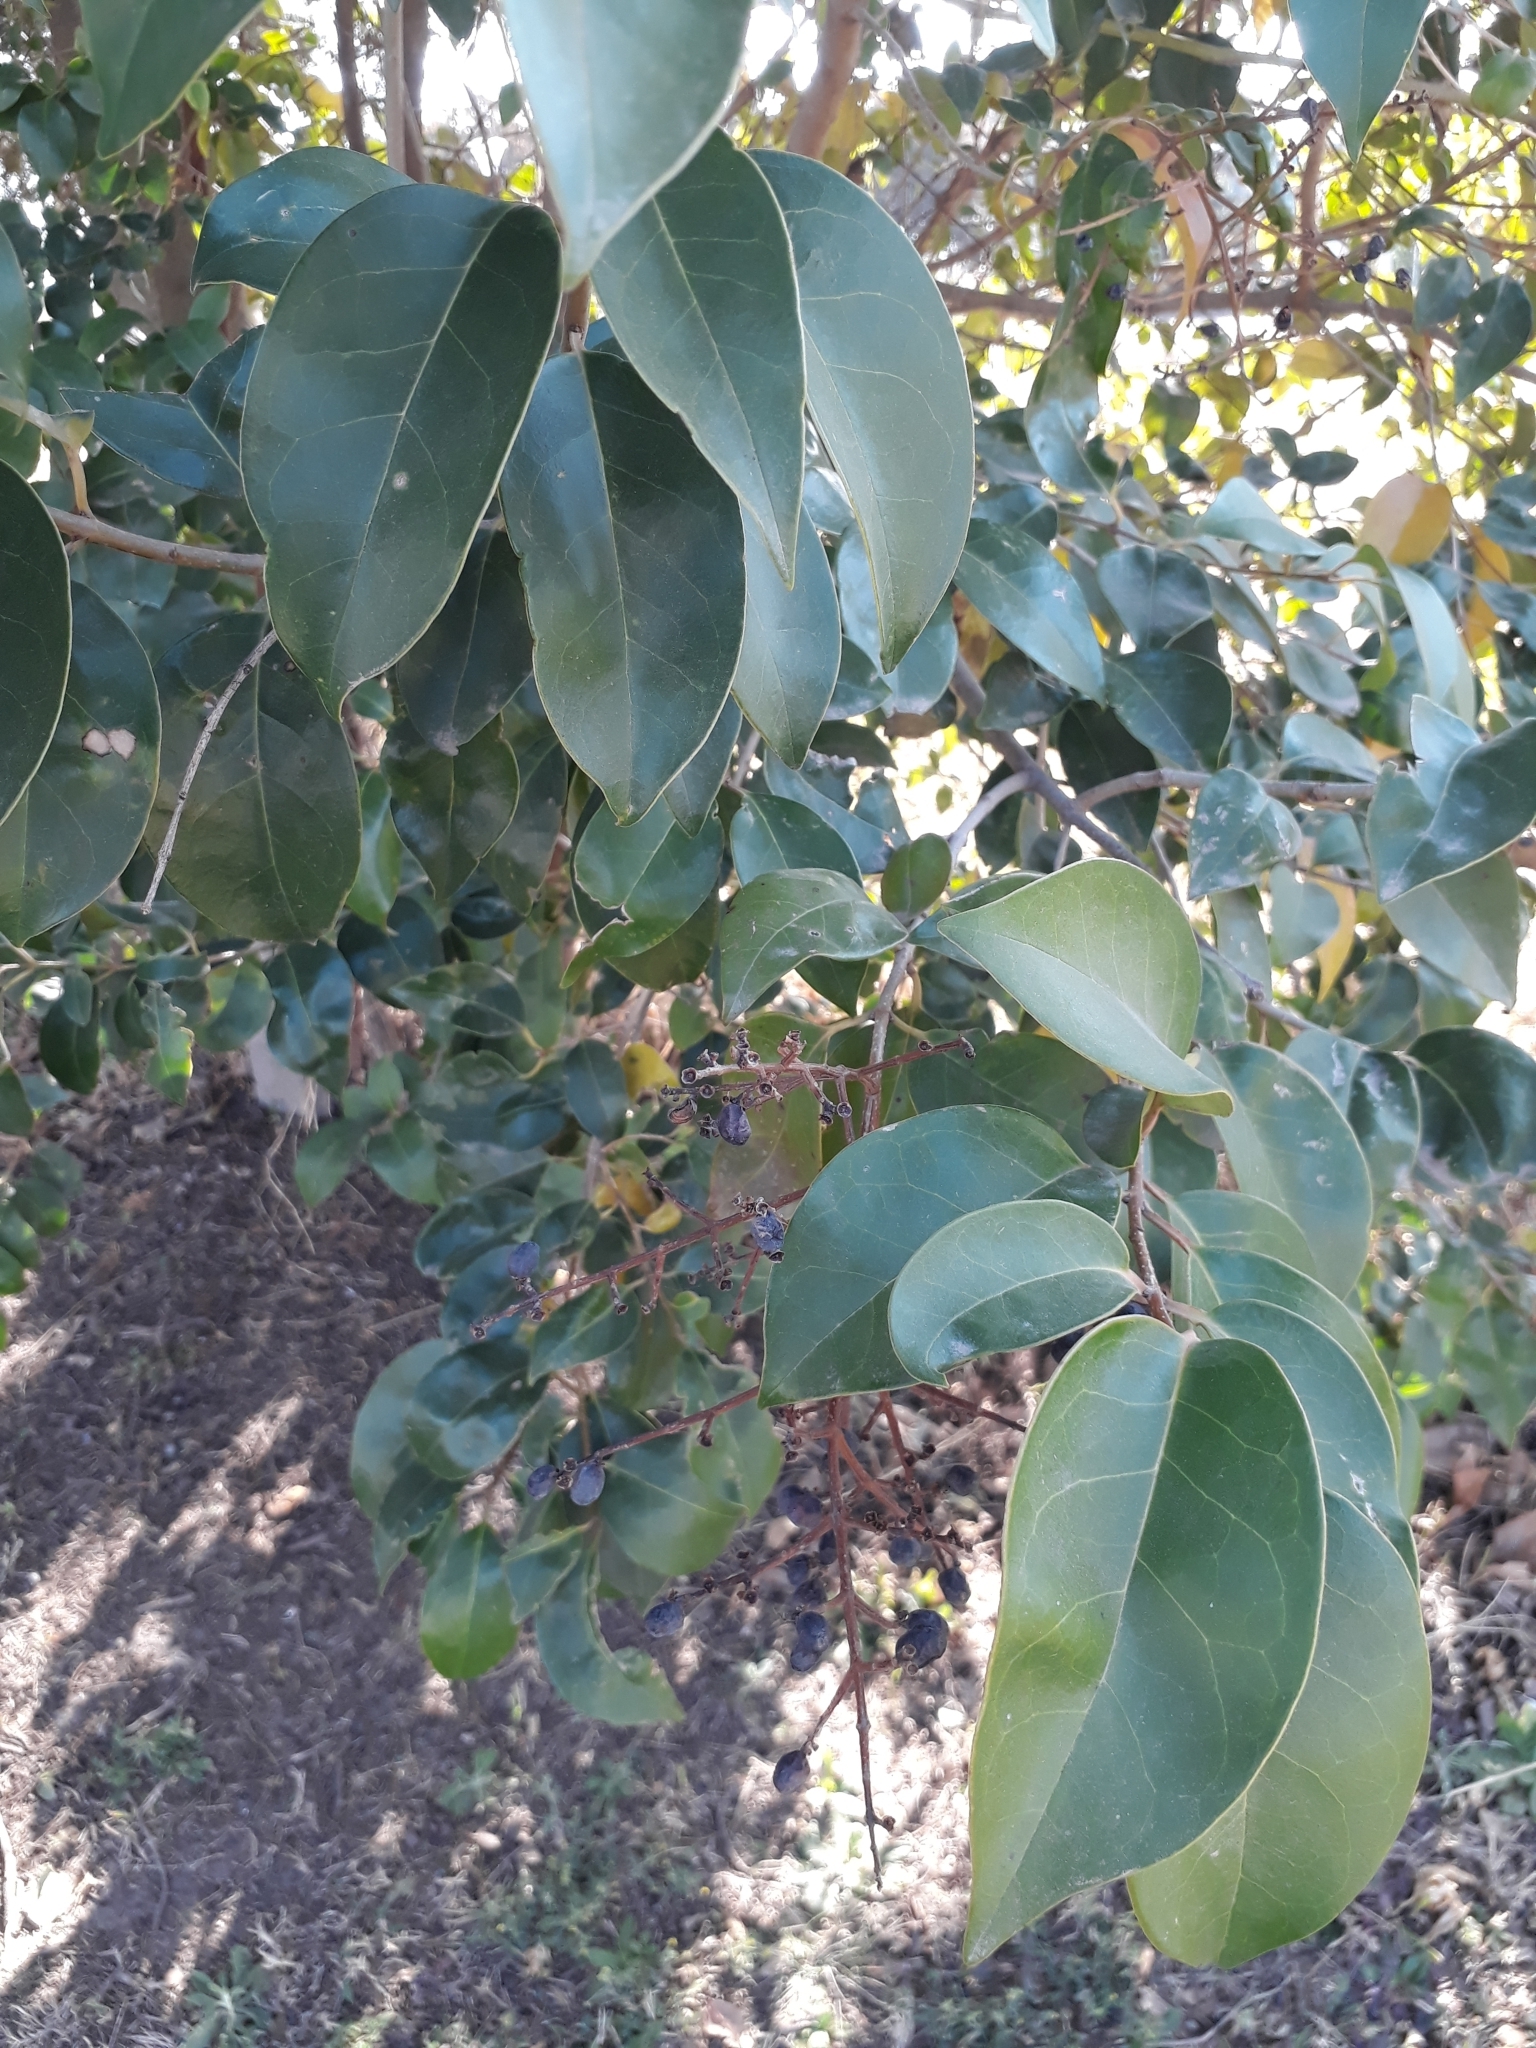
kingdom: Plantae
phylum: Tracheophyta
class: Magnoliopsida
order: Lamiales
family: Oleaceae
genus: Ligustrum
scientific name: Ligustrum lucidum
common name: Glossy privet
